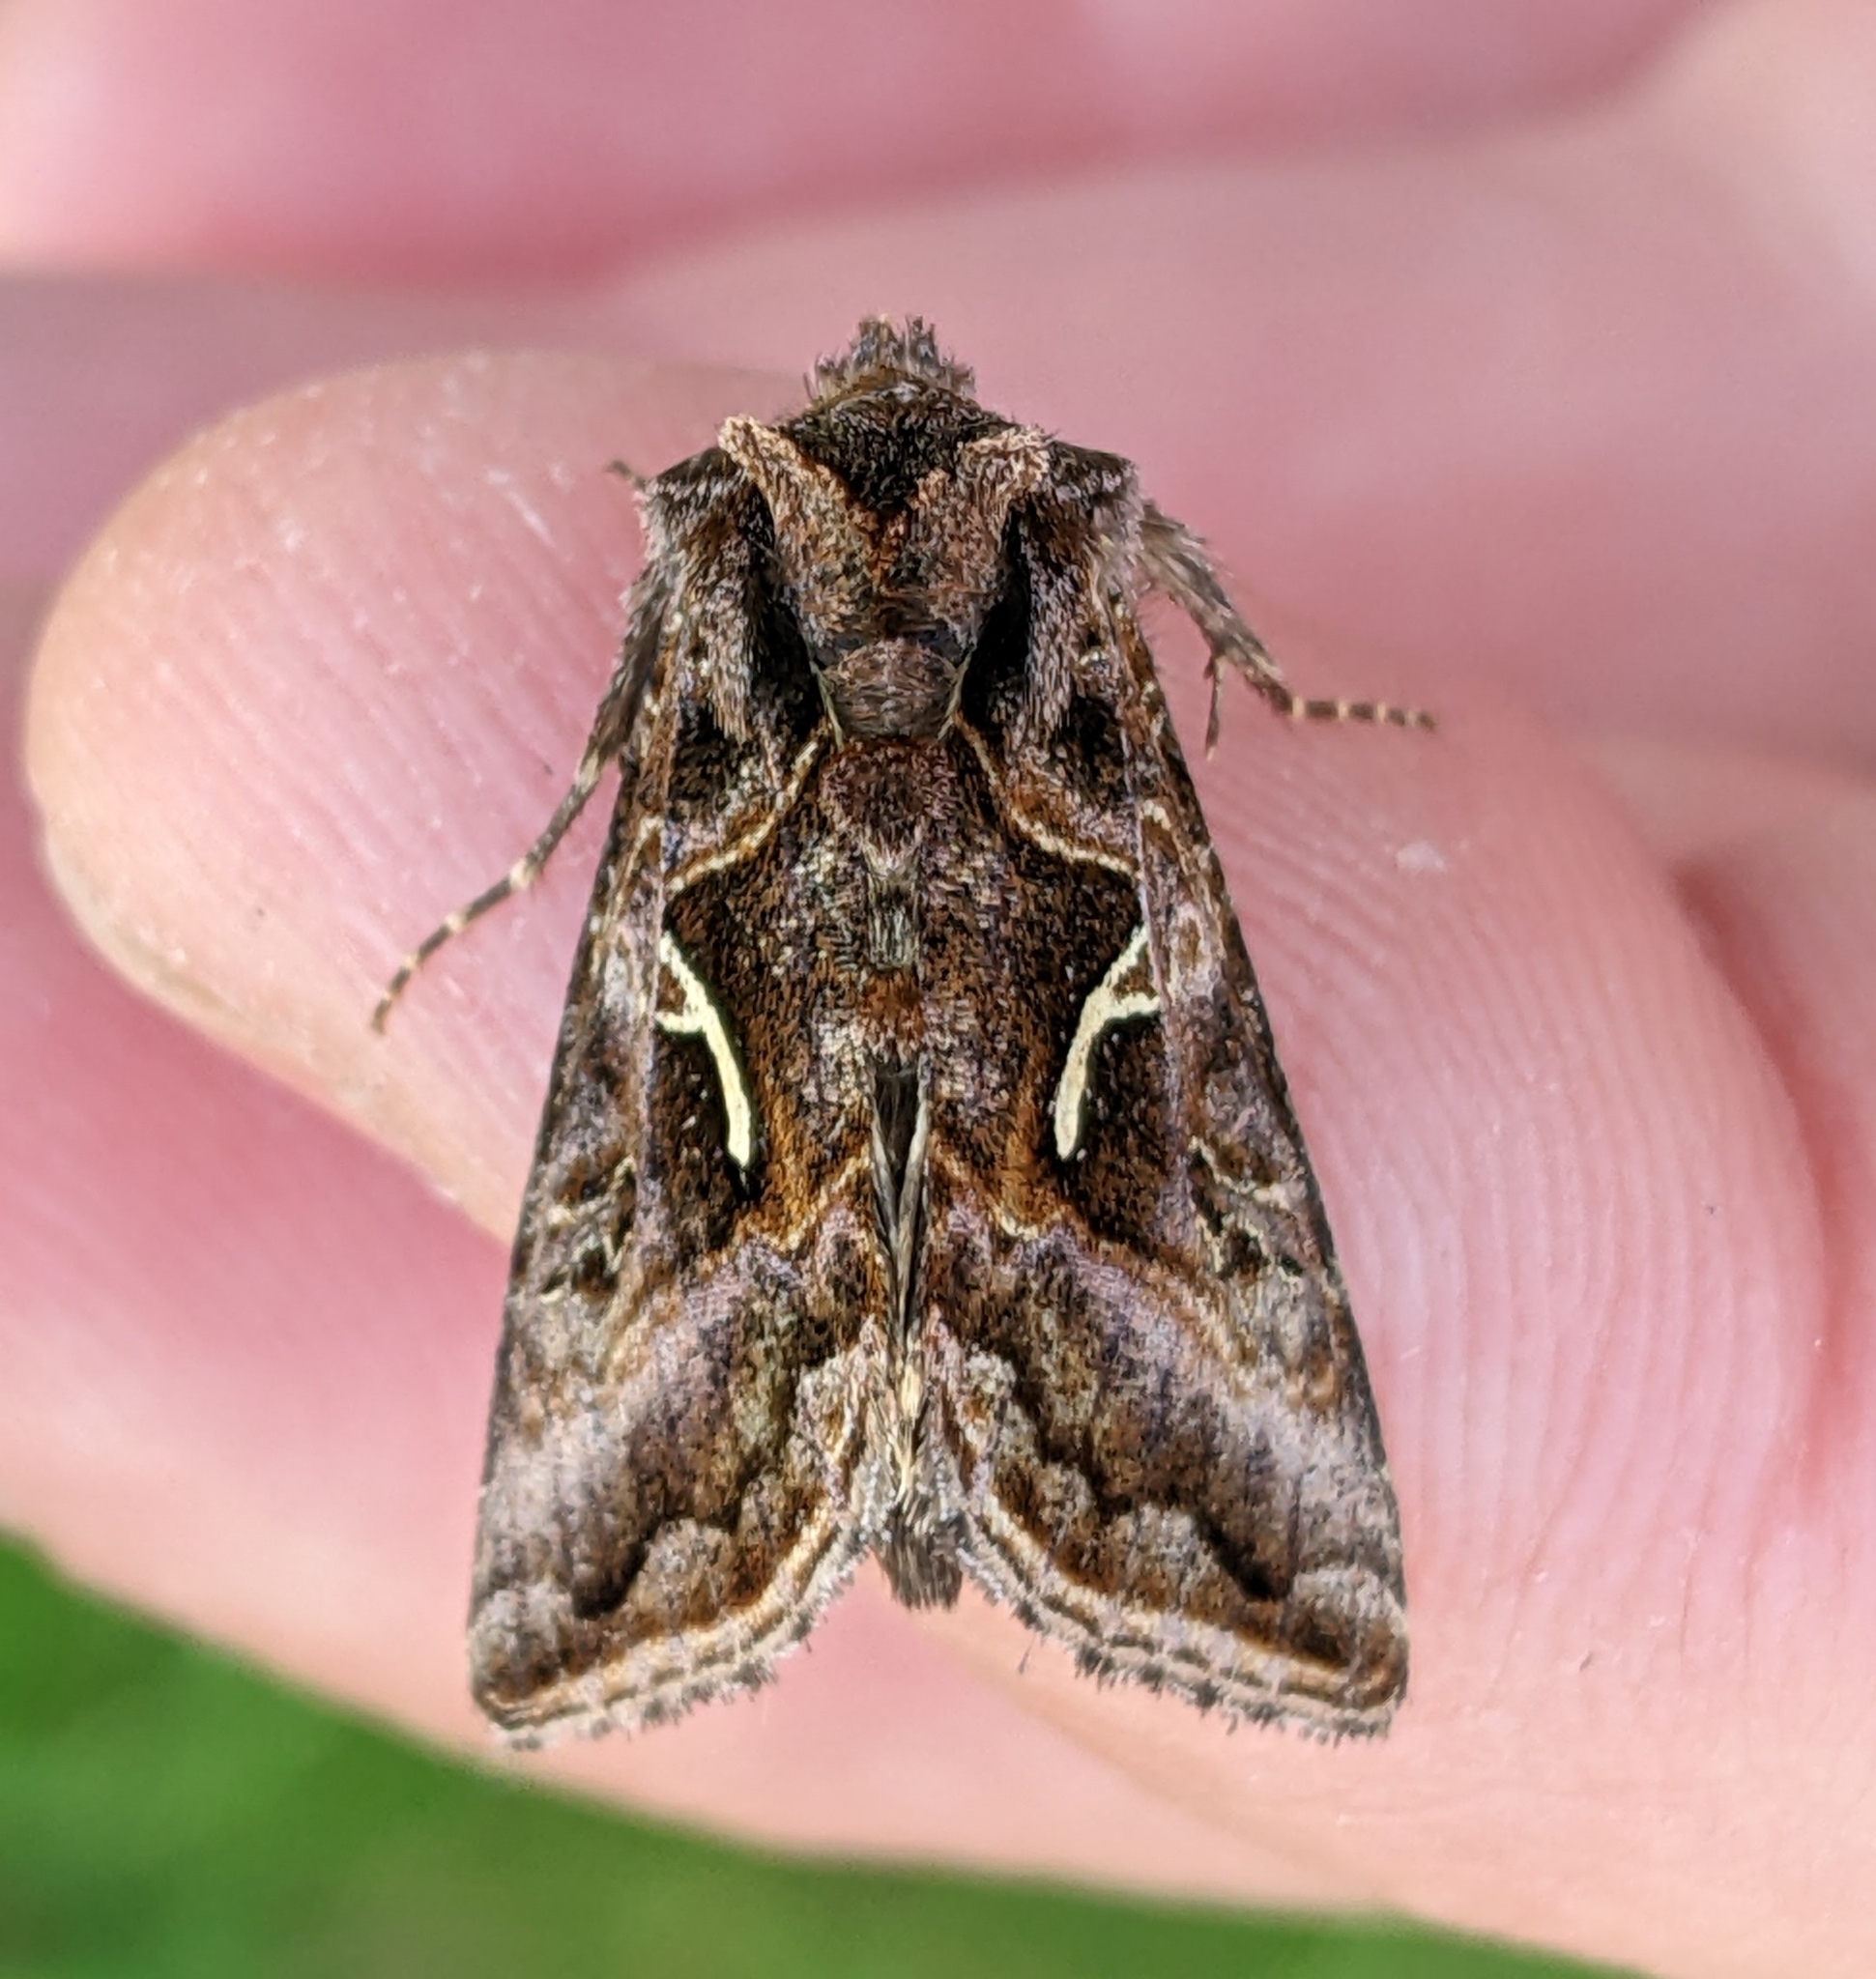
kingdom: Animalia
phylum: Arthropoda
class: Insecta
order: Lepidoptera
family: Noctuidae
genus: Autographa
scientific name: Autographa sansoni
